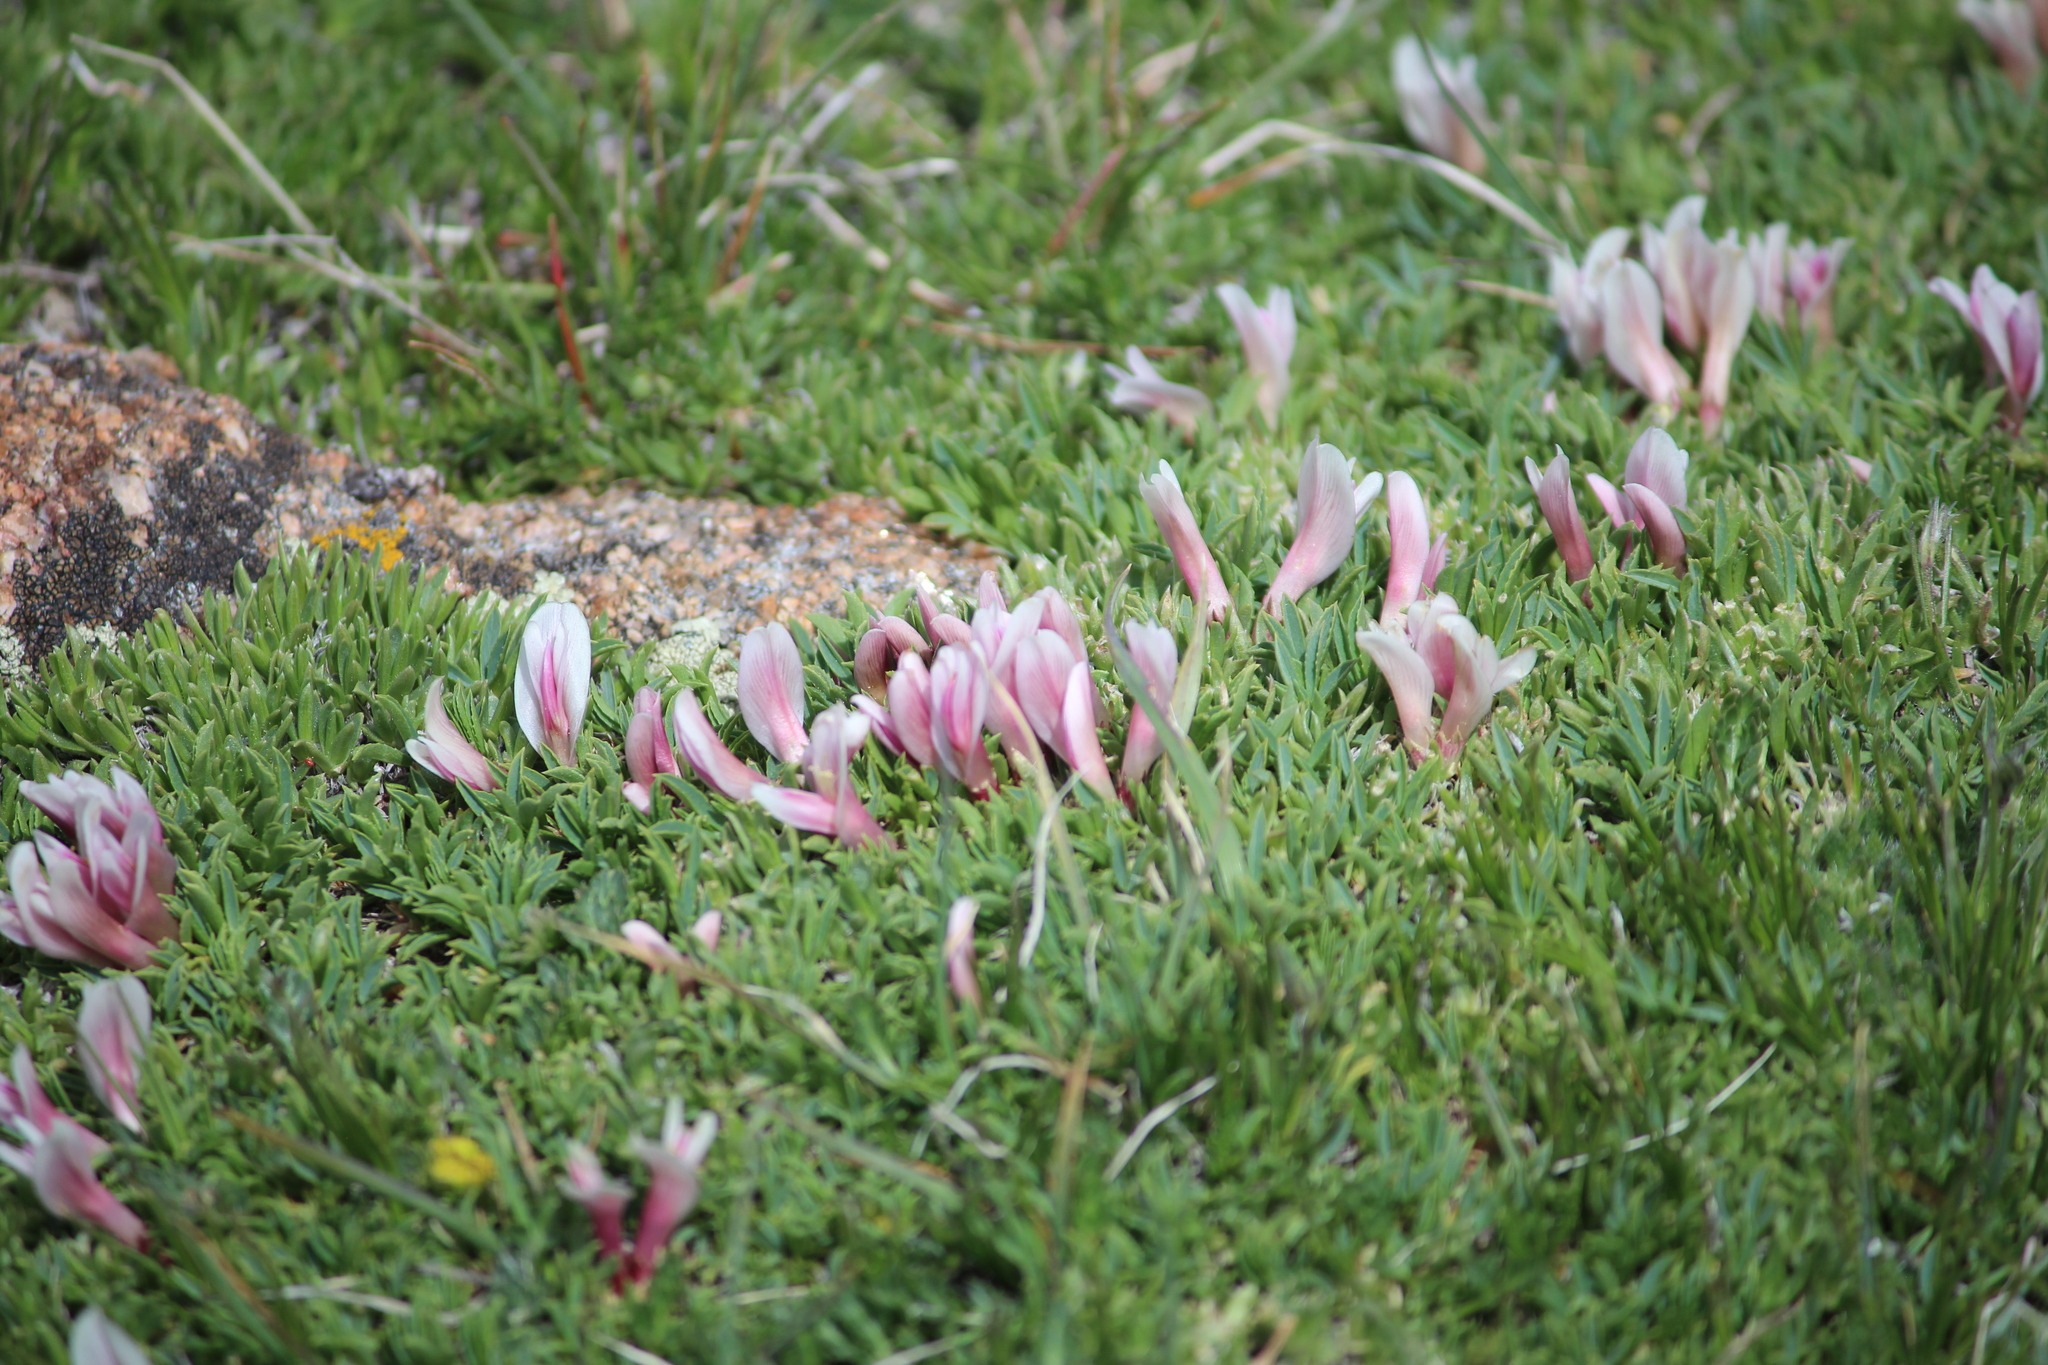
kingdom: Plantae
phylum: Tracheophyta
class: Magnoliopsida
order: Fabales
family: Fabaceae
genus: Trifolium
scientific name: Trifolium nanum
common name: Tundra clover
